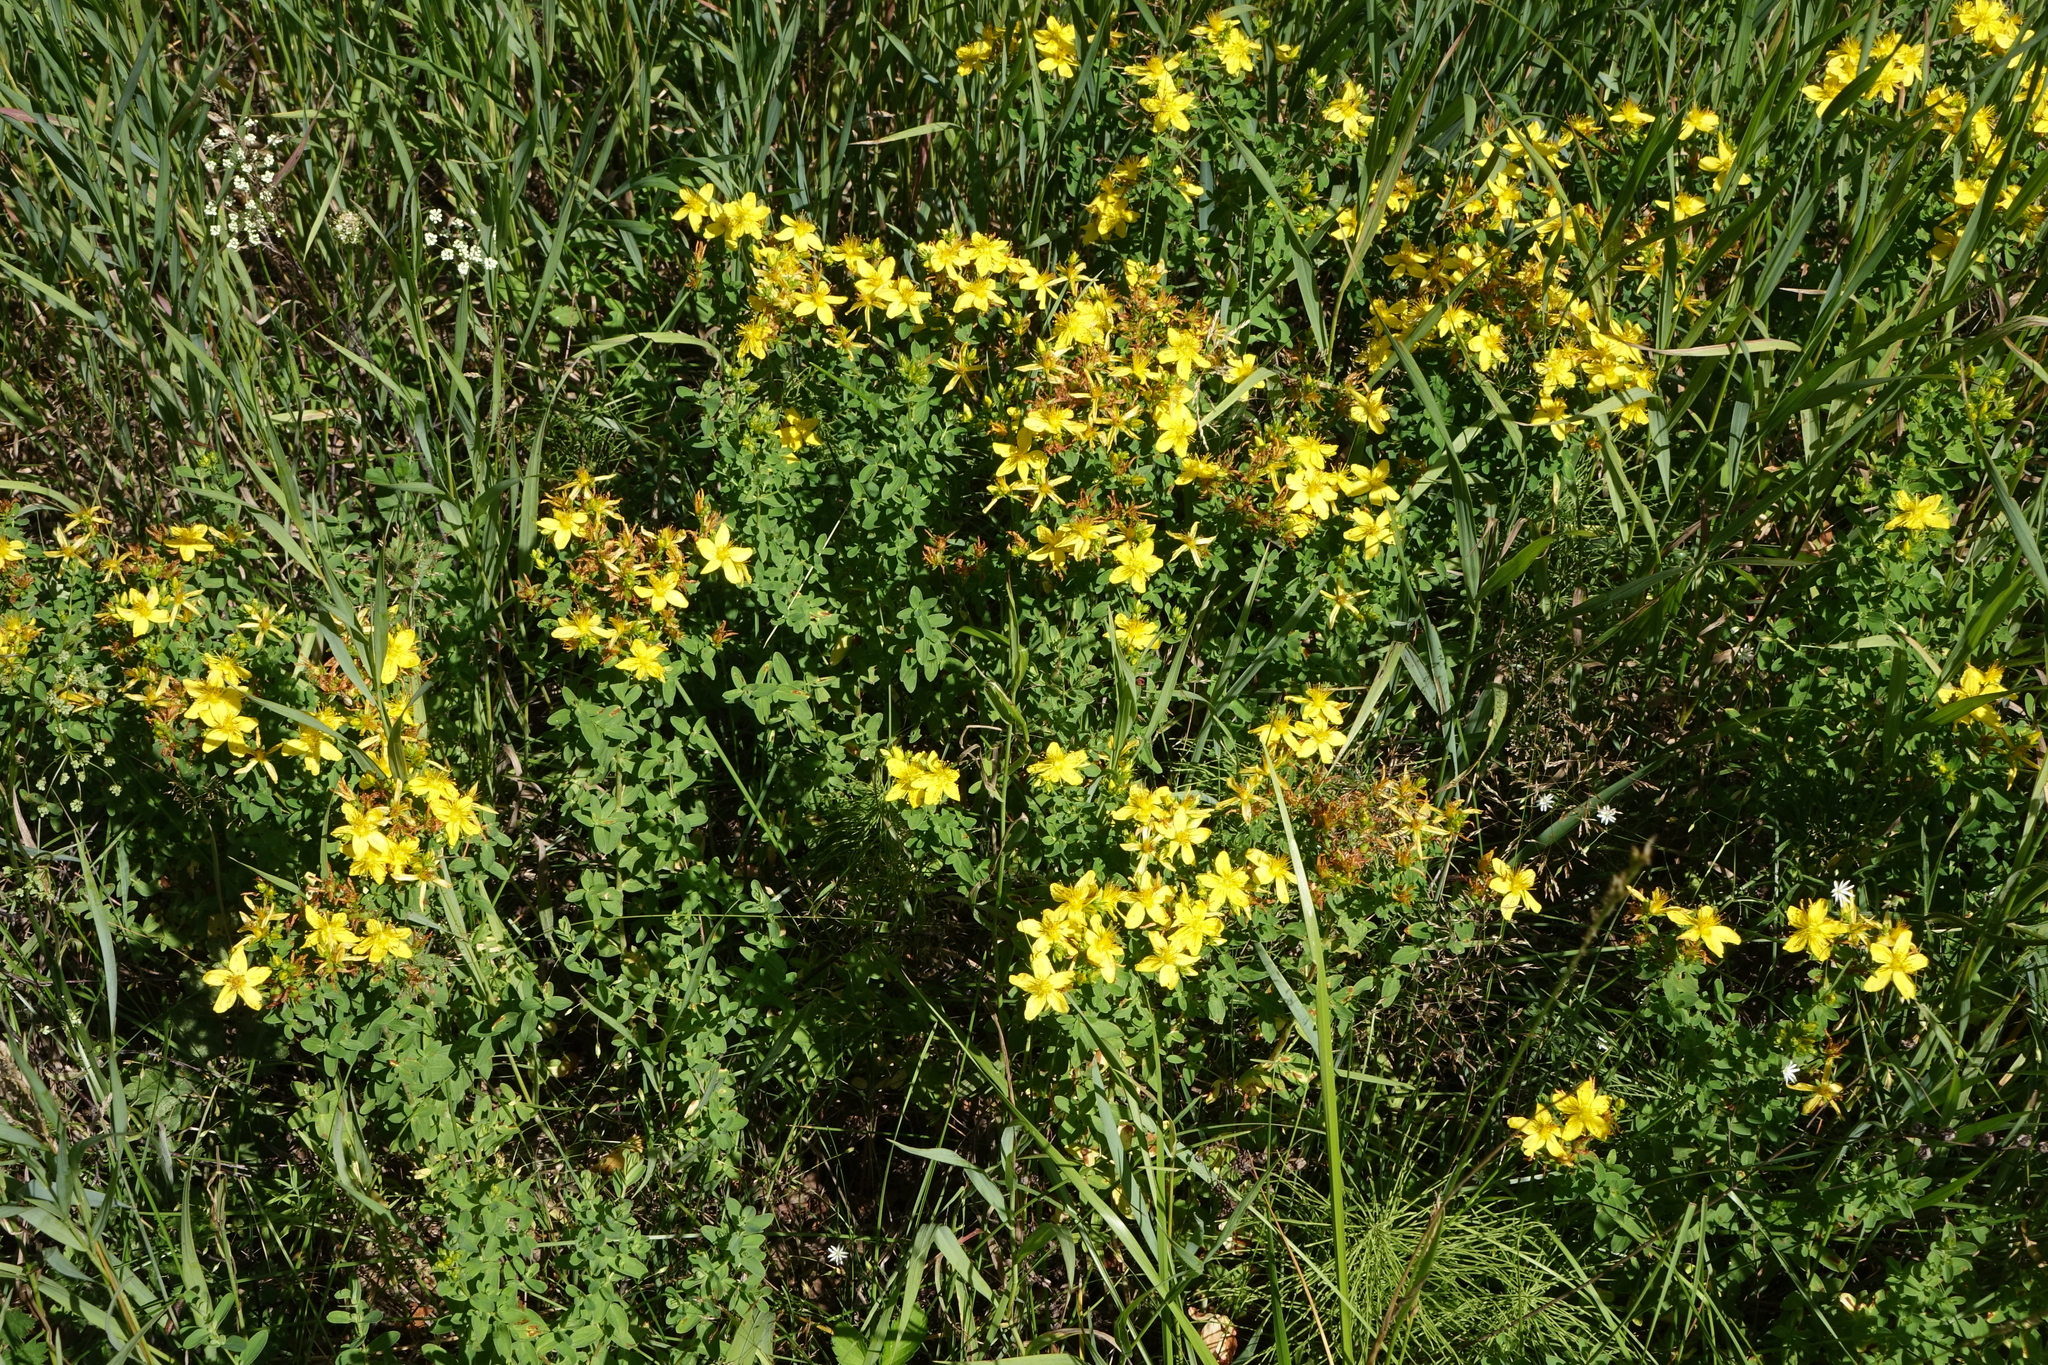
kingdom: Plantae
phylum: Tracheophyta
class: Magnoliopsida
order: Malpighiales
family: Hypericaceae
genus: Hypericum
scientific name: Hypericum perforatum
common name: Common st. johnswort
